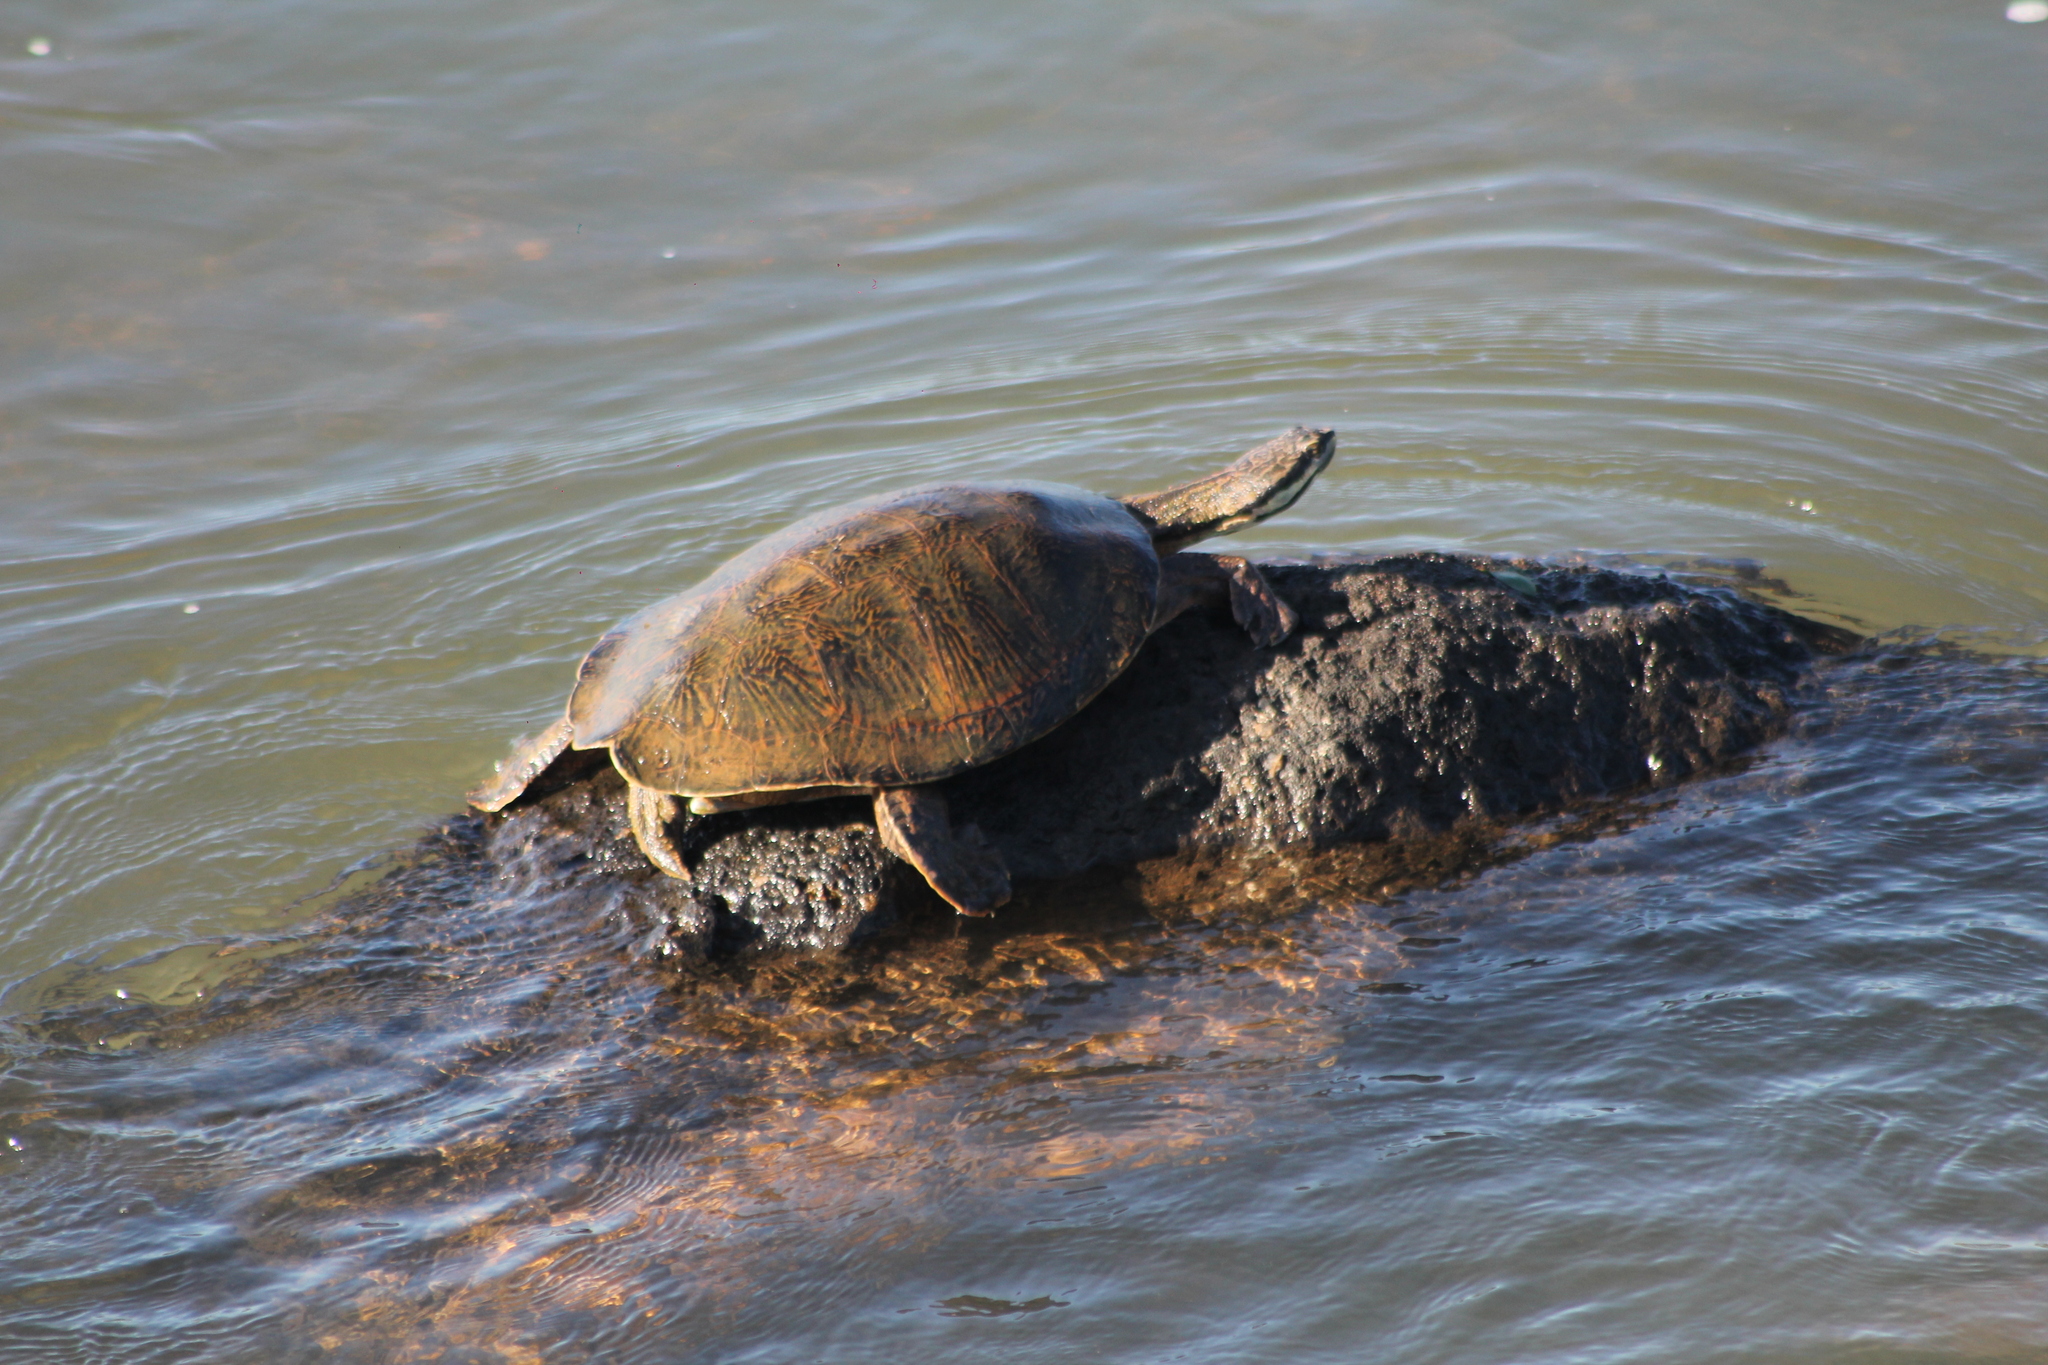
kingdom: Animalia
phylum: Chordata
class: Testudines
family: Chelidae
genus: Phrynops
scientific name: Phrynops williamsi
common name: Williams side-necked turtle
